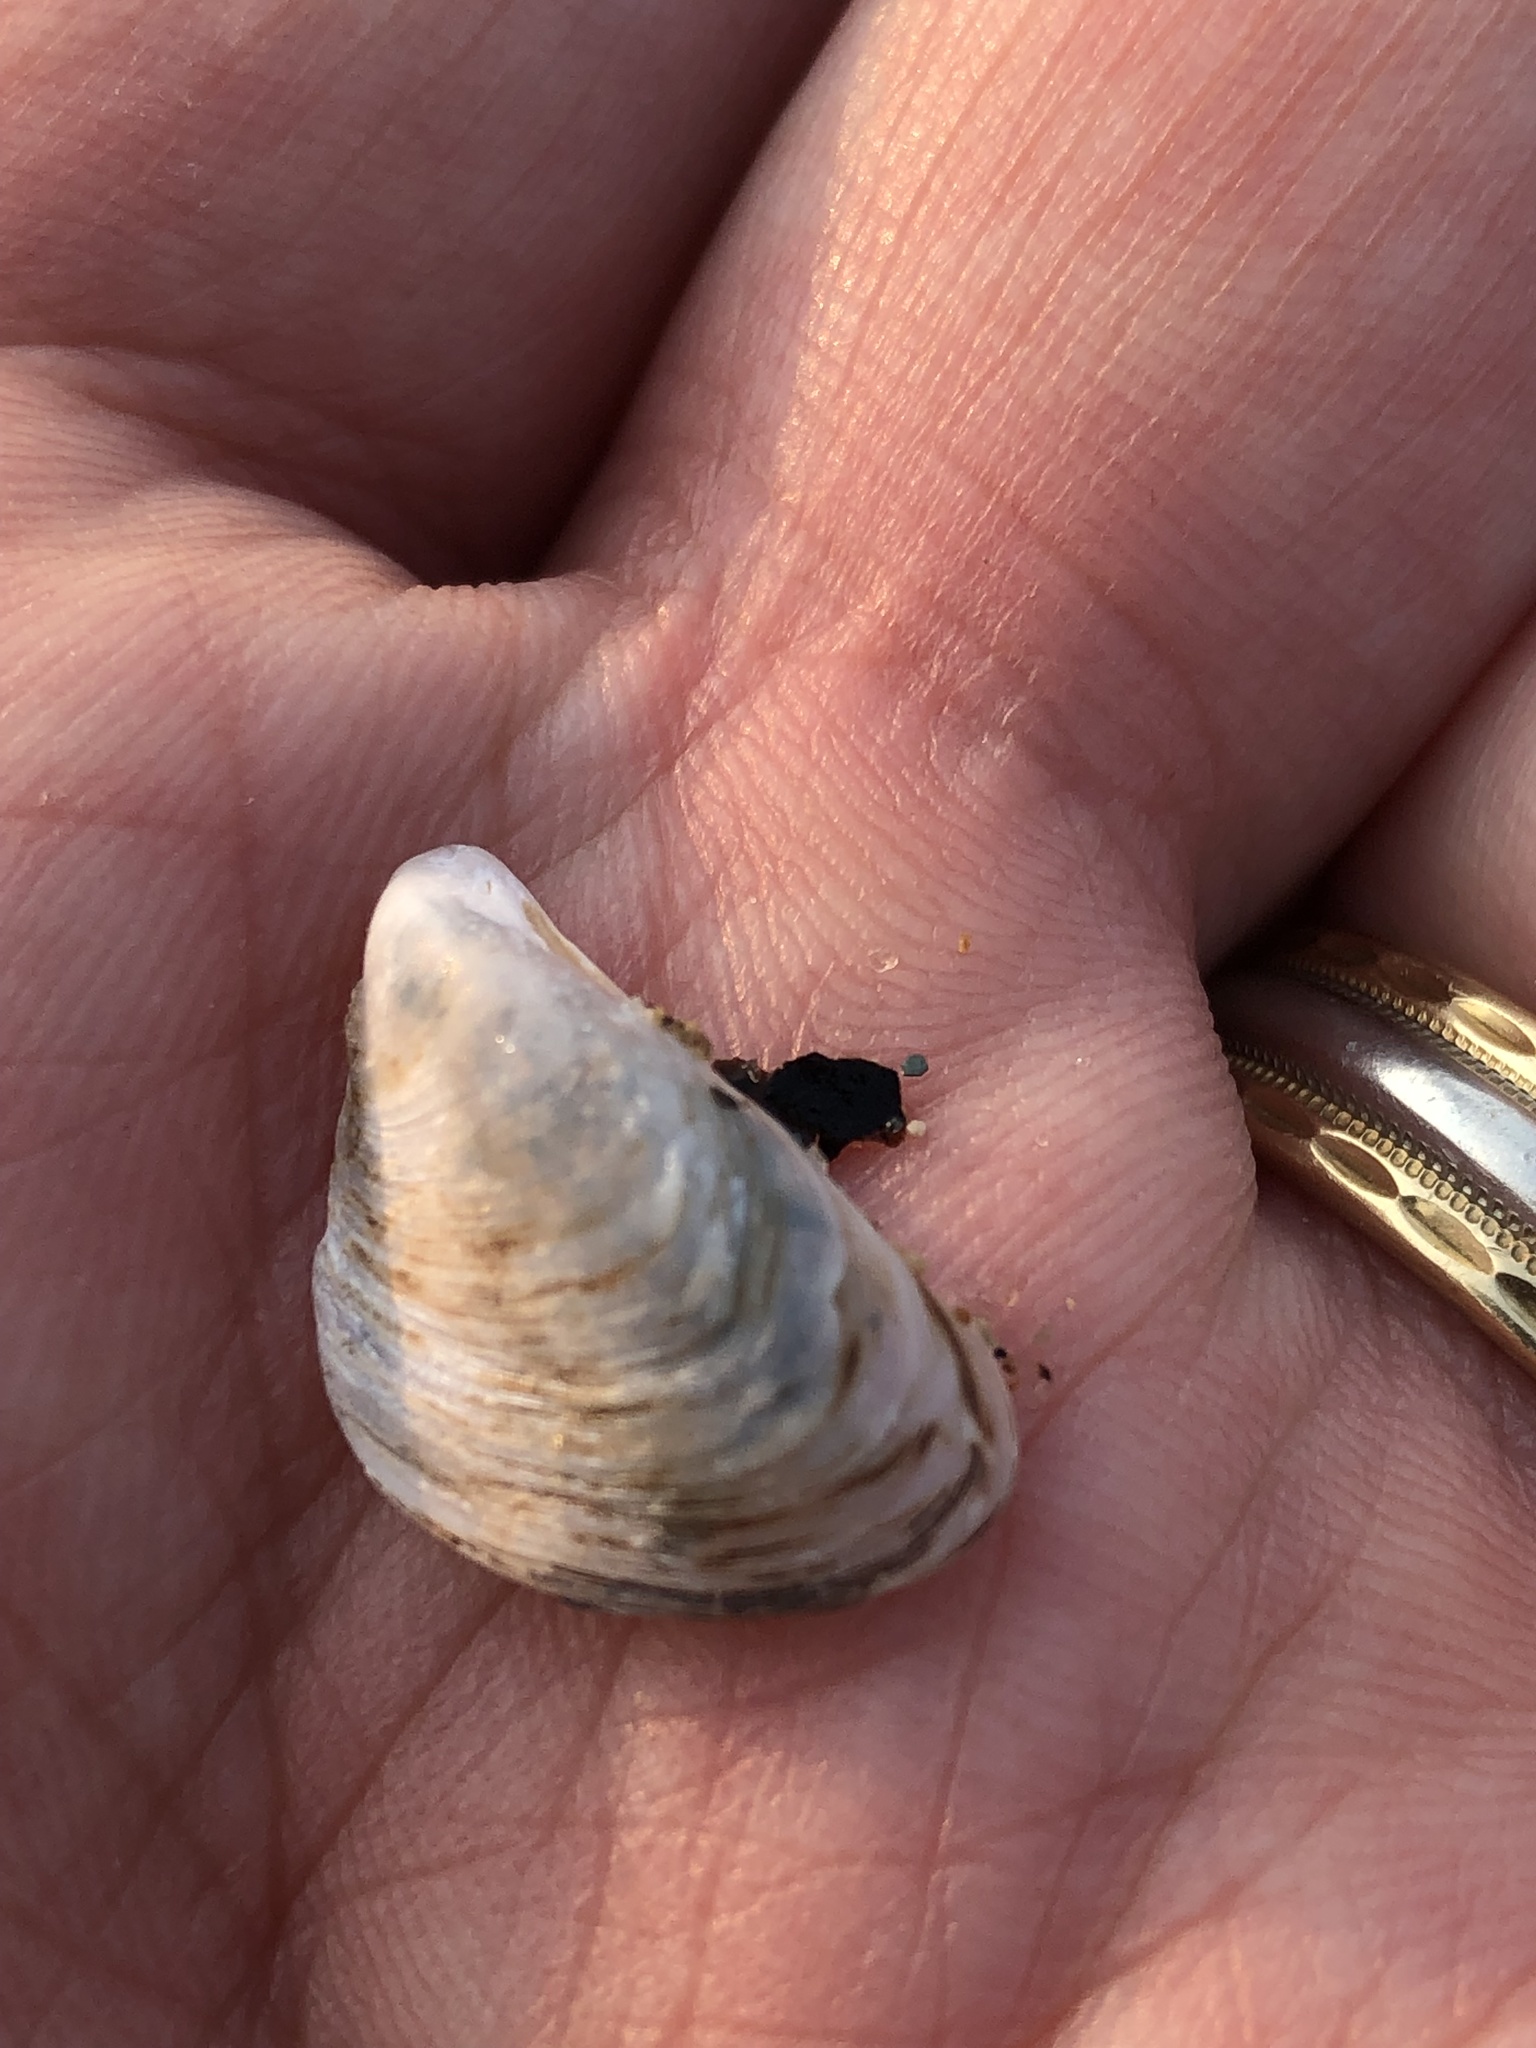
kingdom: Animalia
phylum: Mollusca
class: Bivalvia
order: Myida
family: Dreissenidae
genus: Dreissena
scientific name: Dreissena bugensis
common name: Quagga mussel
